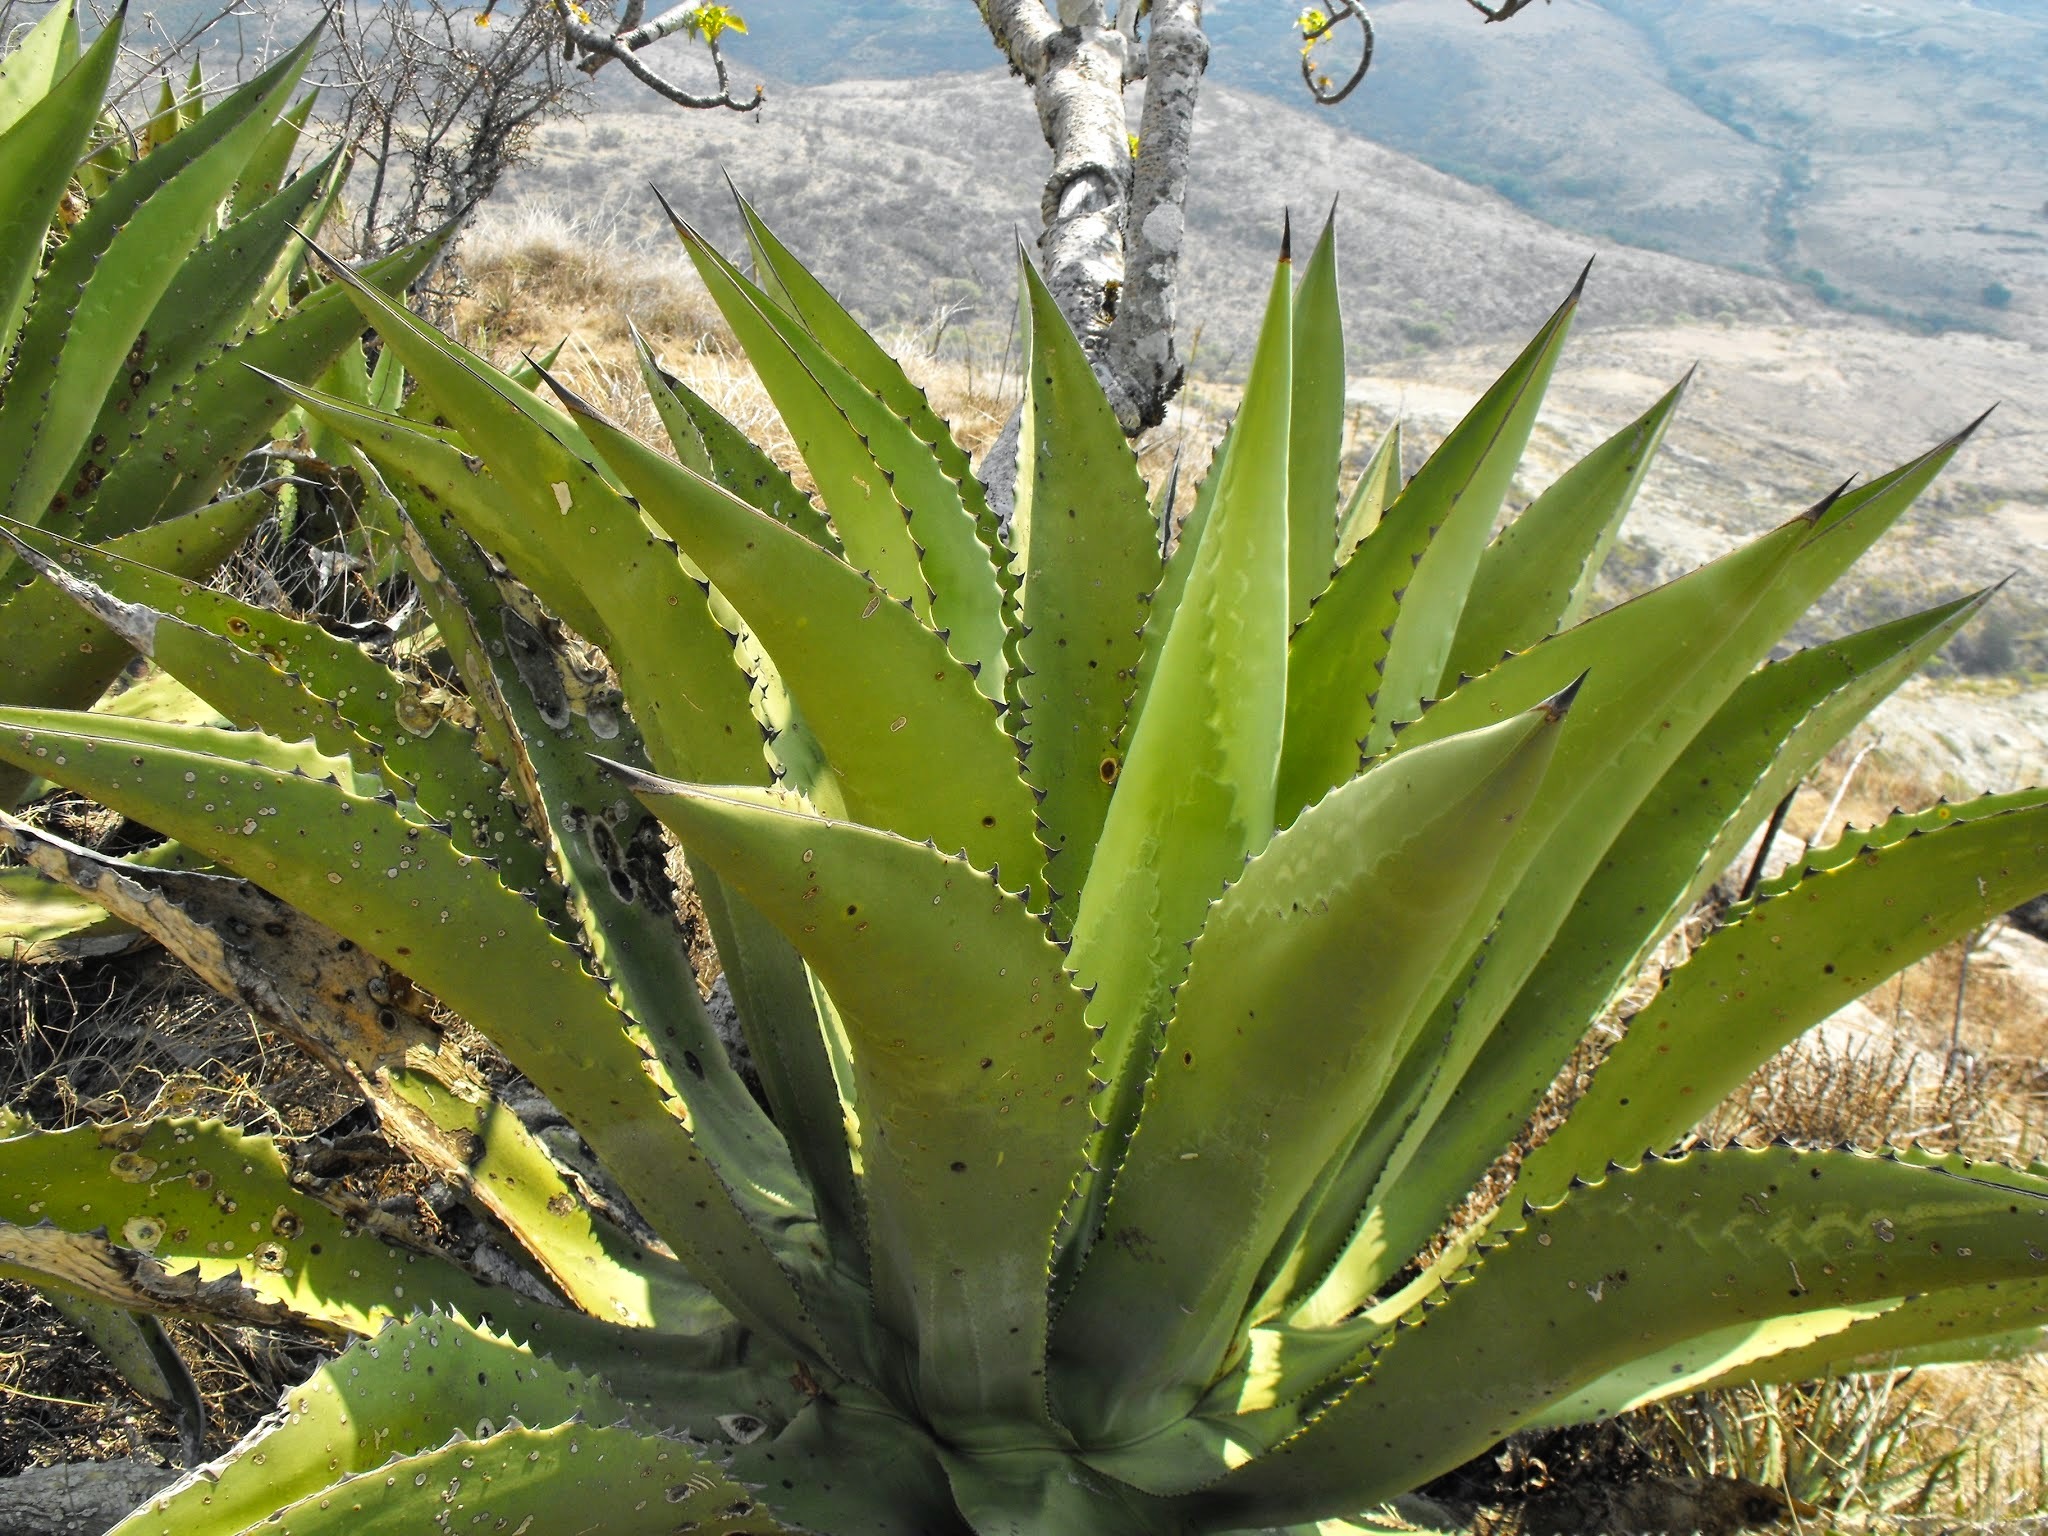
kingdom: Plantae
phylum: Tracheophyta
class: Liliopsida
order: Asparagales
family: Asparagaceae
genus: Agave
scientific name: Agave scaposa
